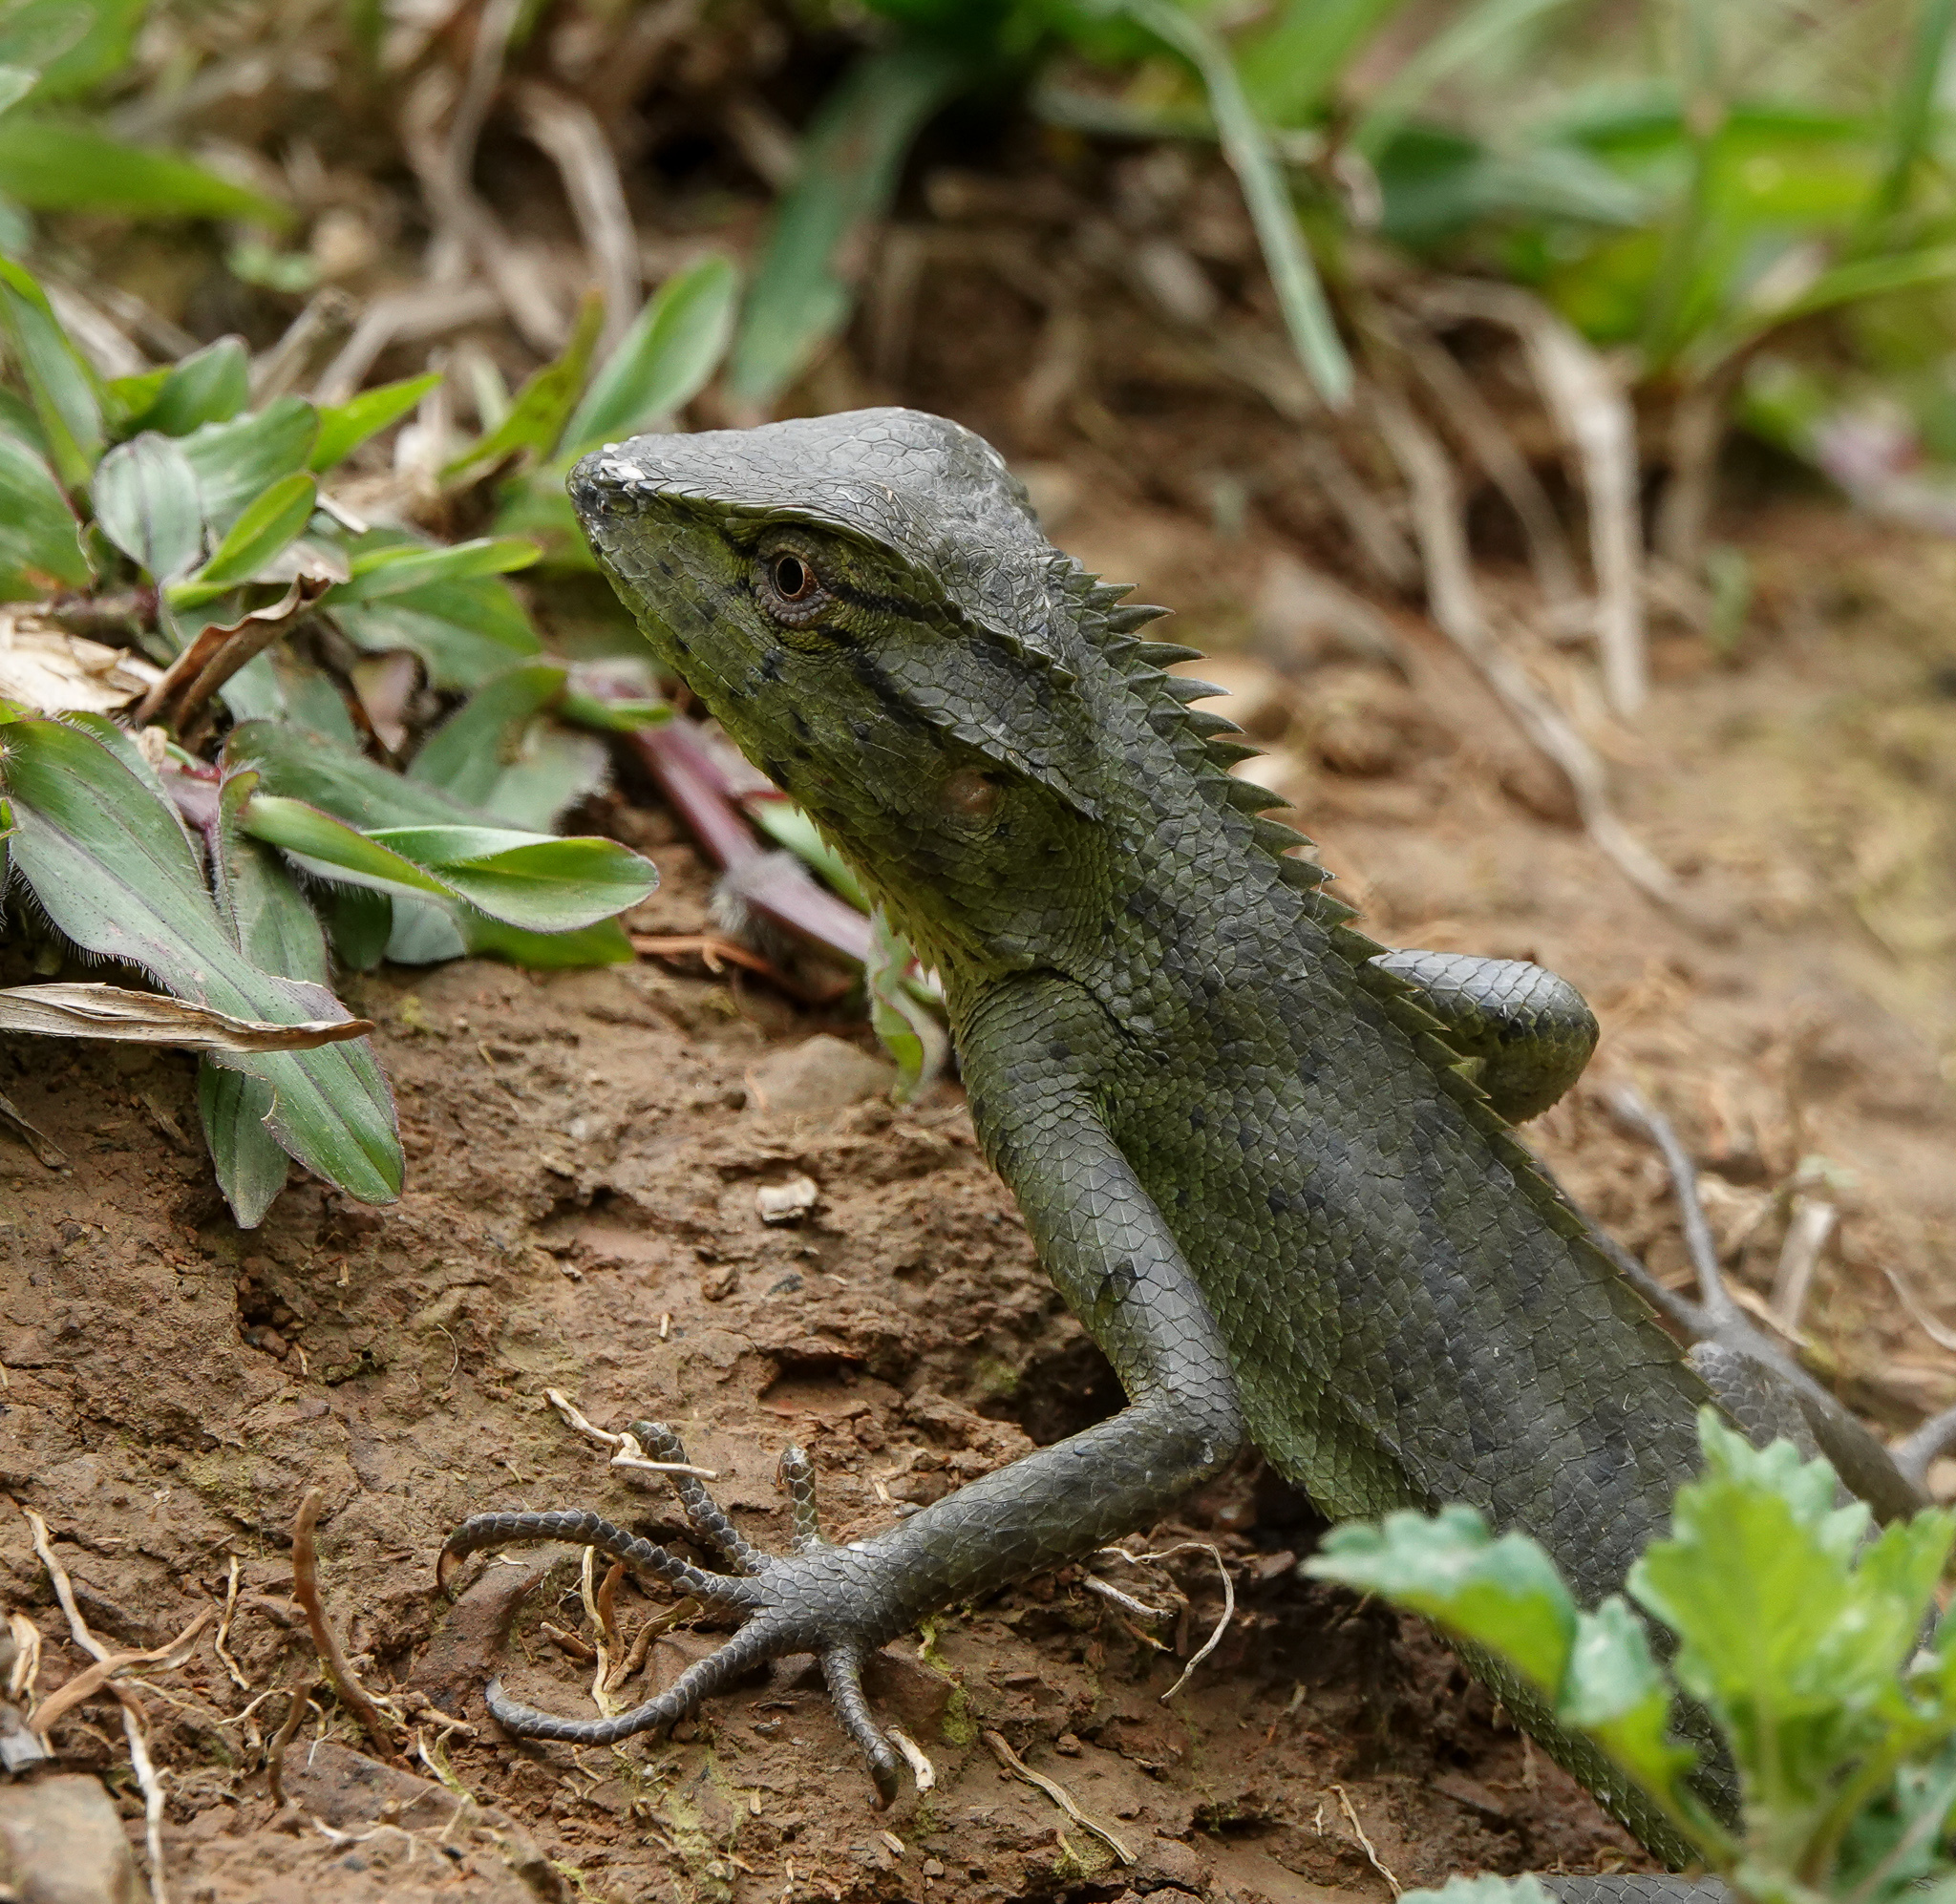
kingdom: Animalia
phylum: Chordata
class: Squamata
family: Agamidae
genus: Calotes
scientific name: Calotes jerdoni
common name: Jerdon's forest lizard
